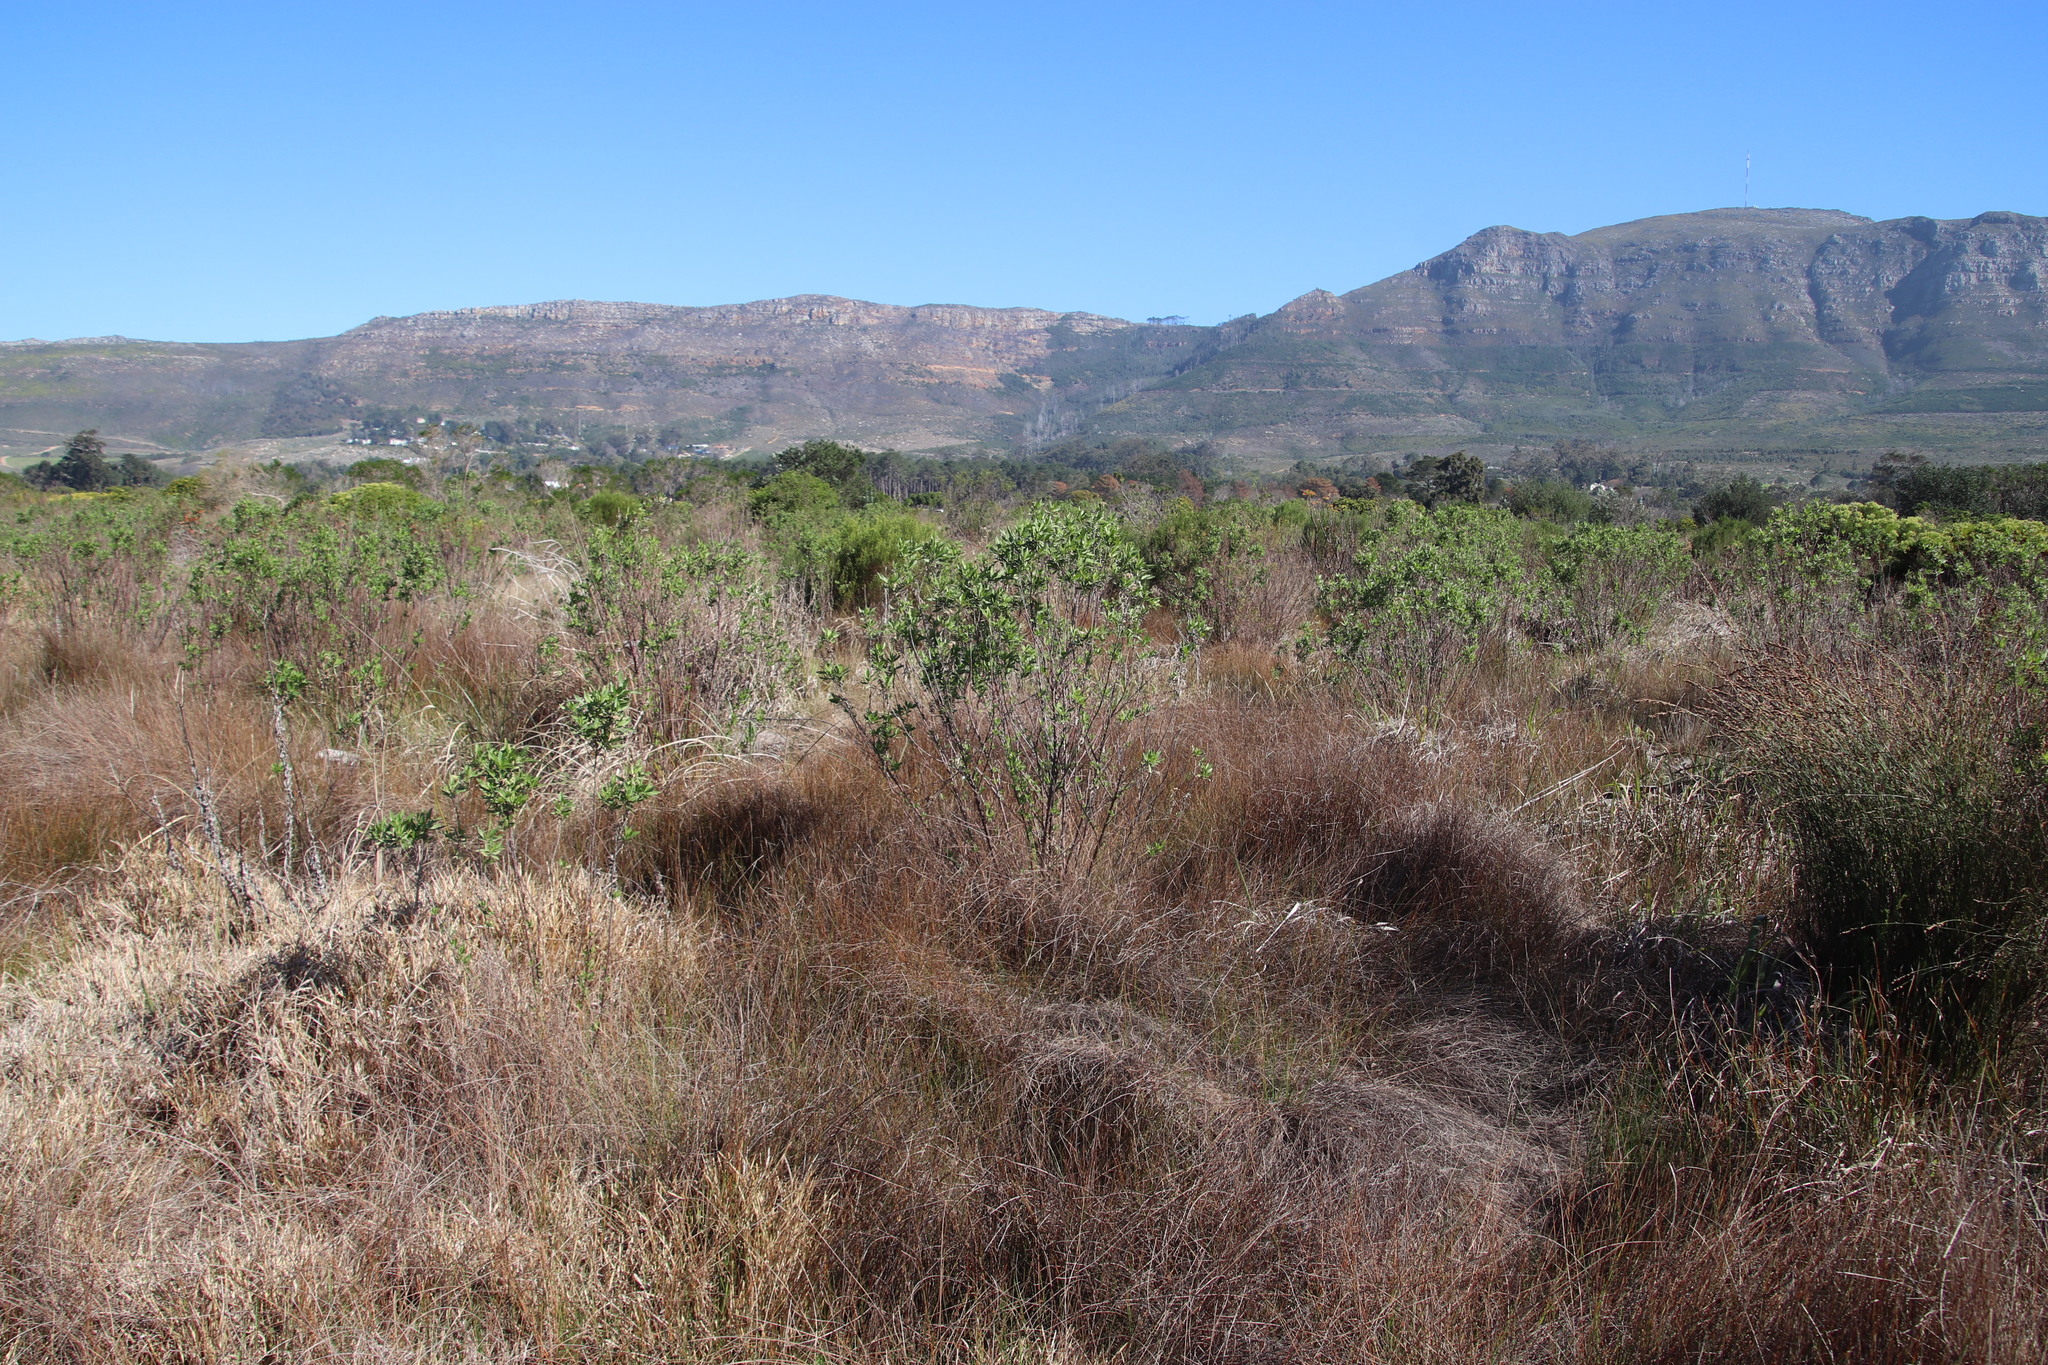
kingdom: Plantae
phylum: Tracheophyta
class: Magnoliopsida
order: Asterales
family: Asteraceae
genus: Nidorella
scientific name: Nidorella ivifolia
